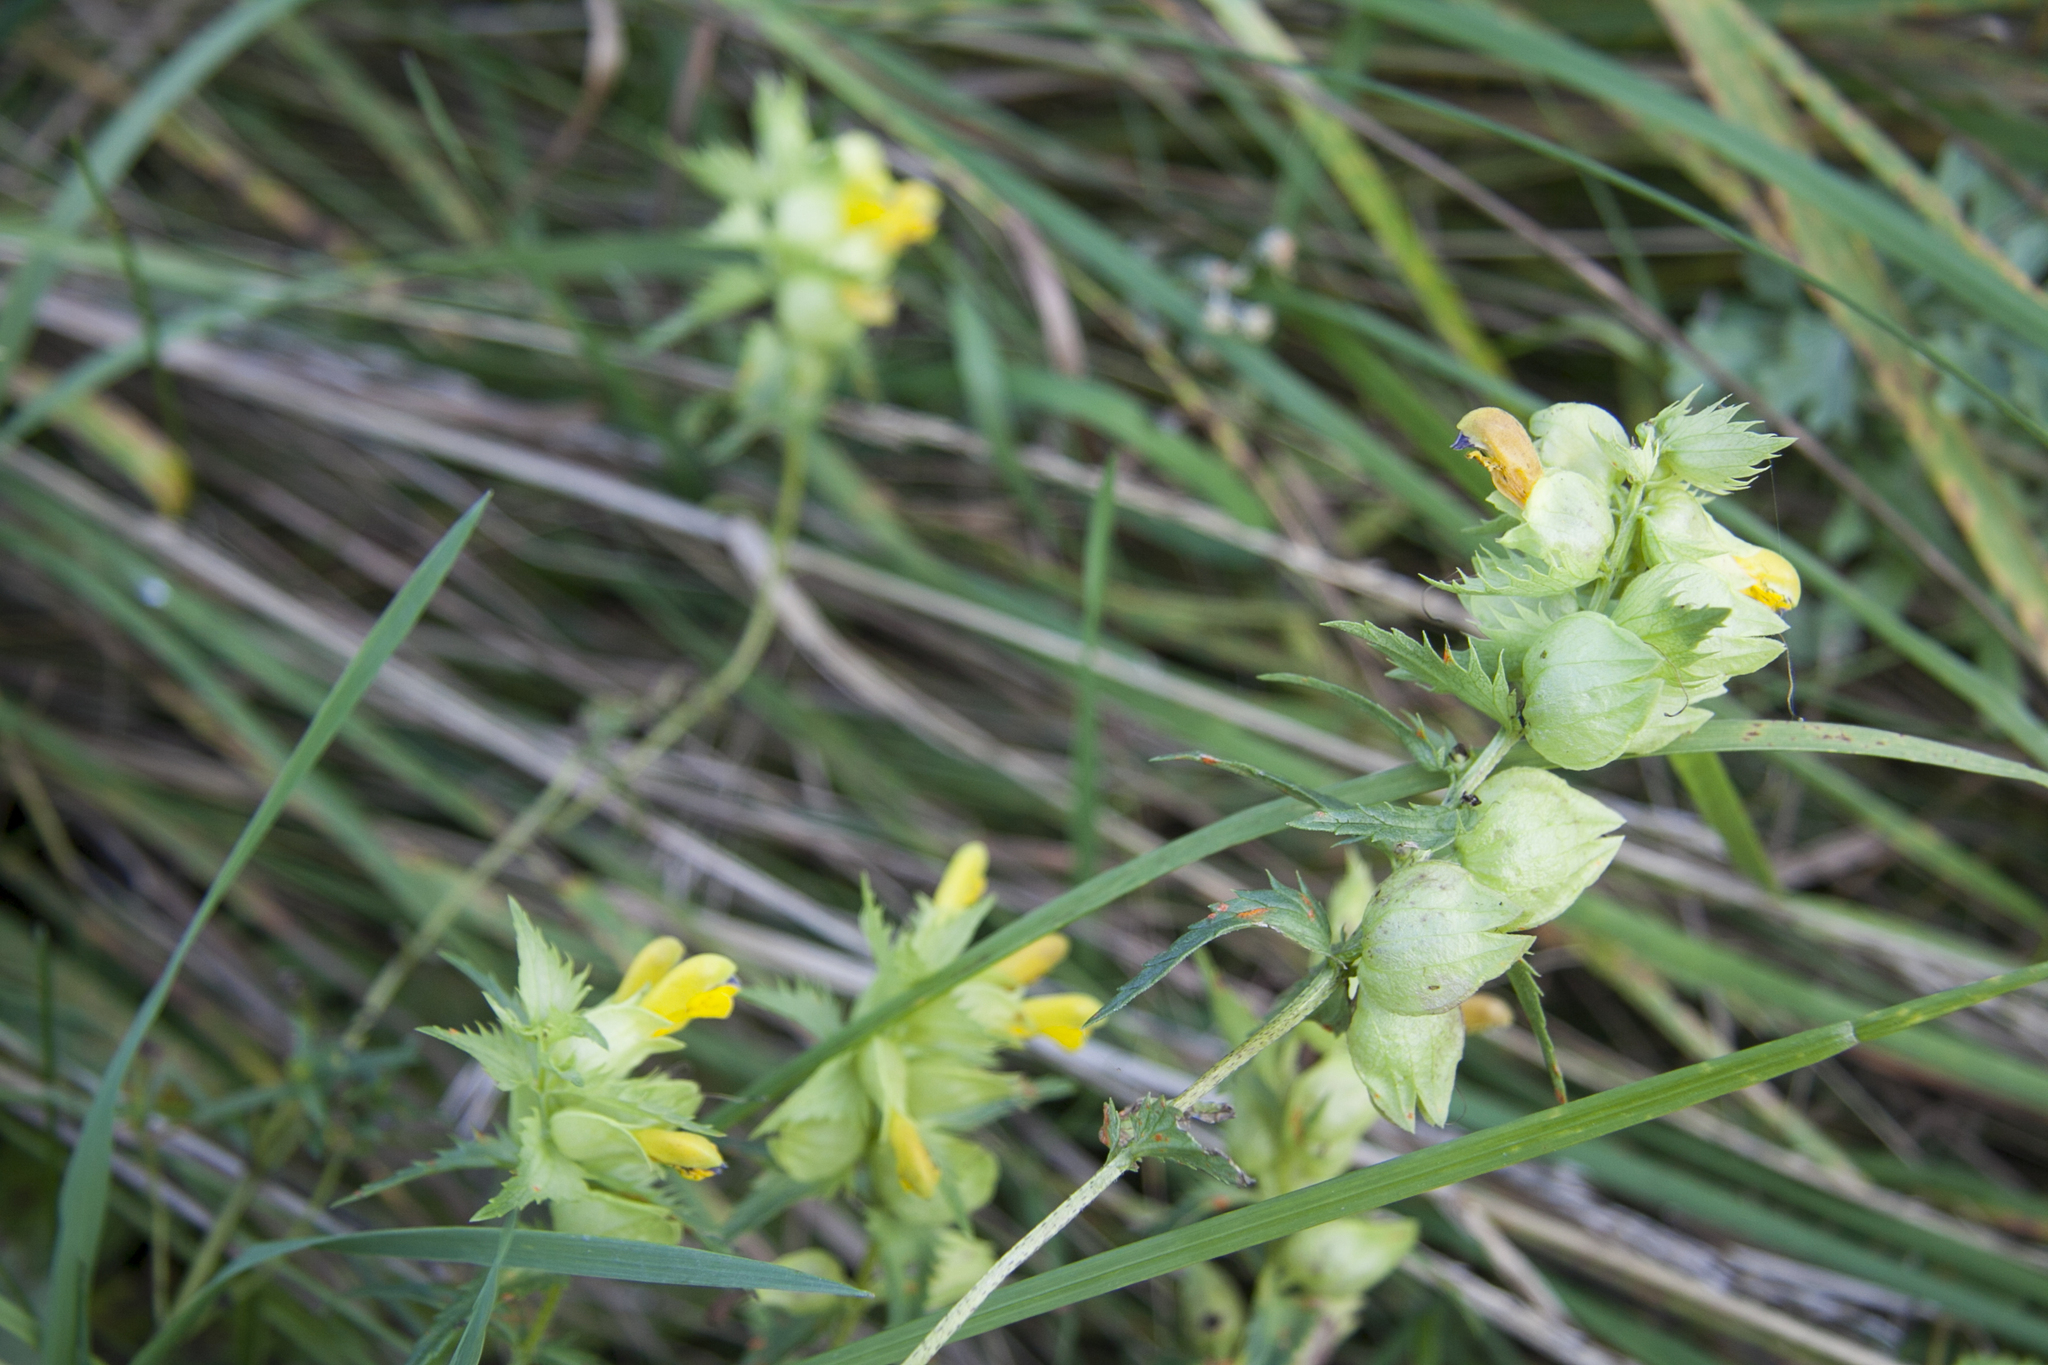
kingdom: Plantae
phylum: Tracheophyta
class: Magnoliopsida
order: Lamiales
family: Orobanchaceae
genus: Rhinanthus
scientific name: Rhinanthus serotinus
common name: Late-flowering yellow rattle
